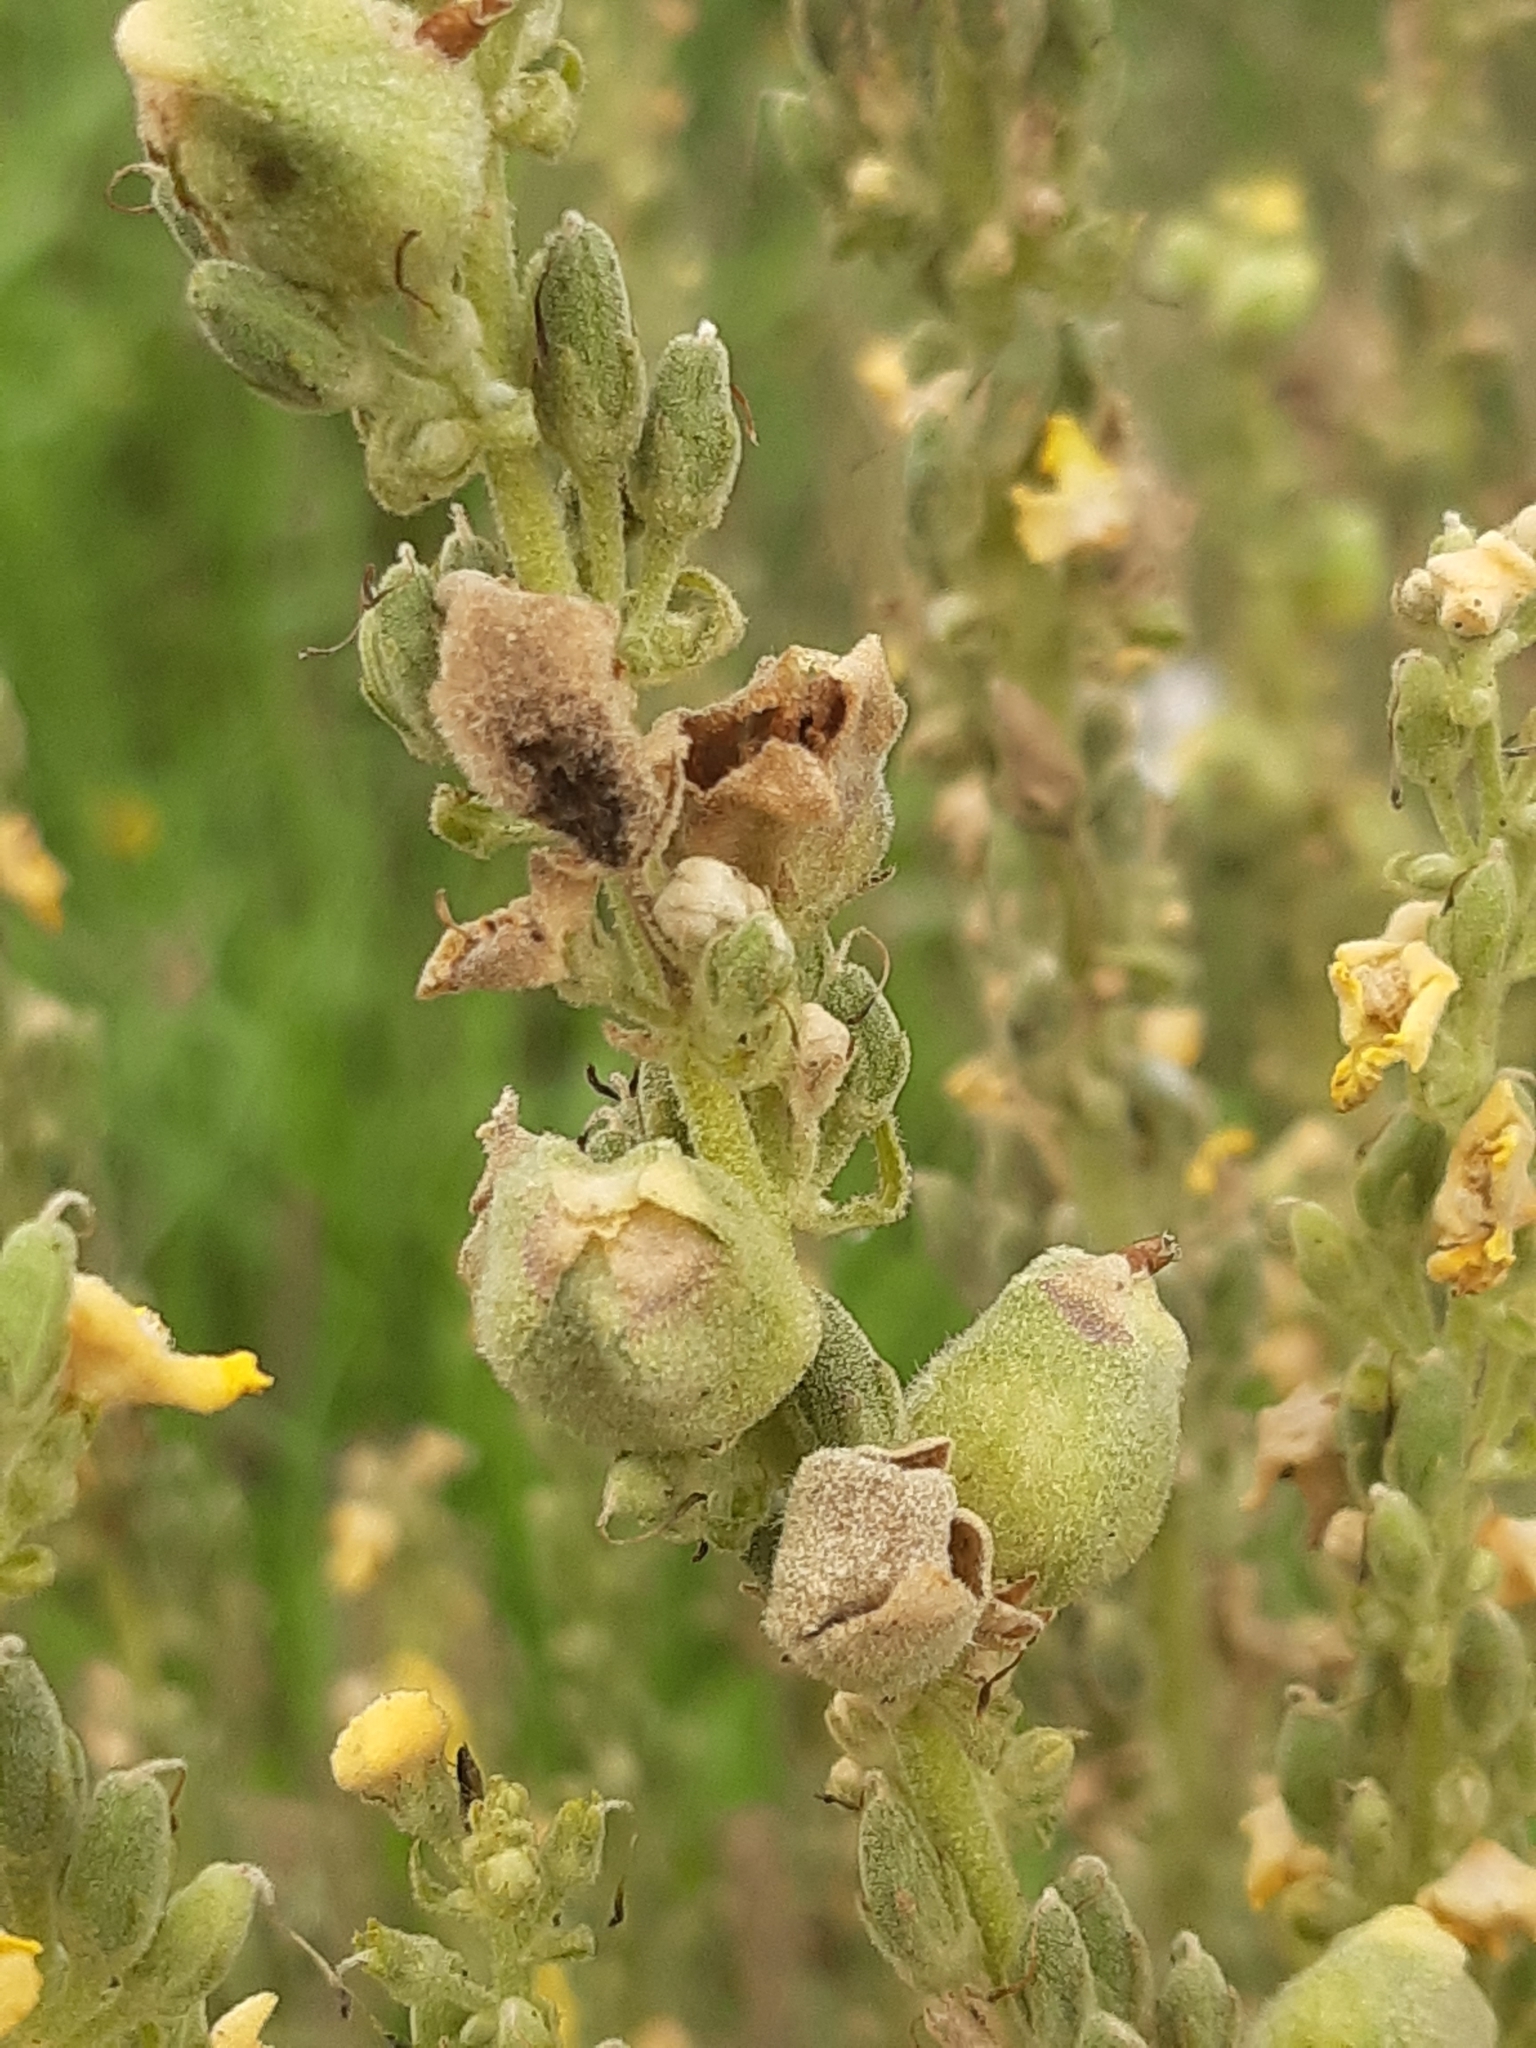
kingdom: Animalia
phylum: Arthropoda
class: Insecta
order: Diptera
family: Cecidomyiidae
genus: Asphondylia
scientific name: Asphondylia verbasci
